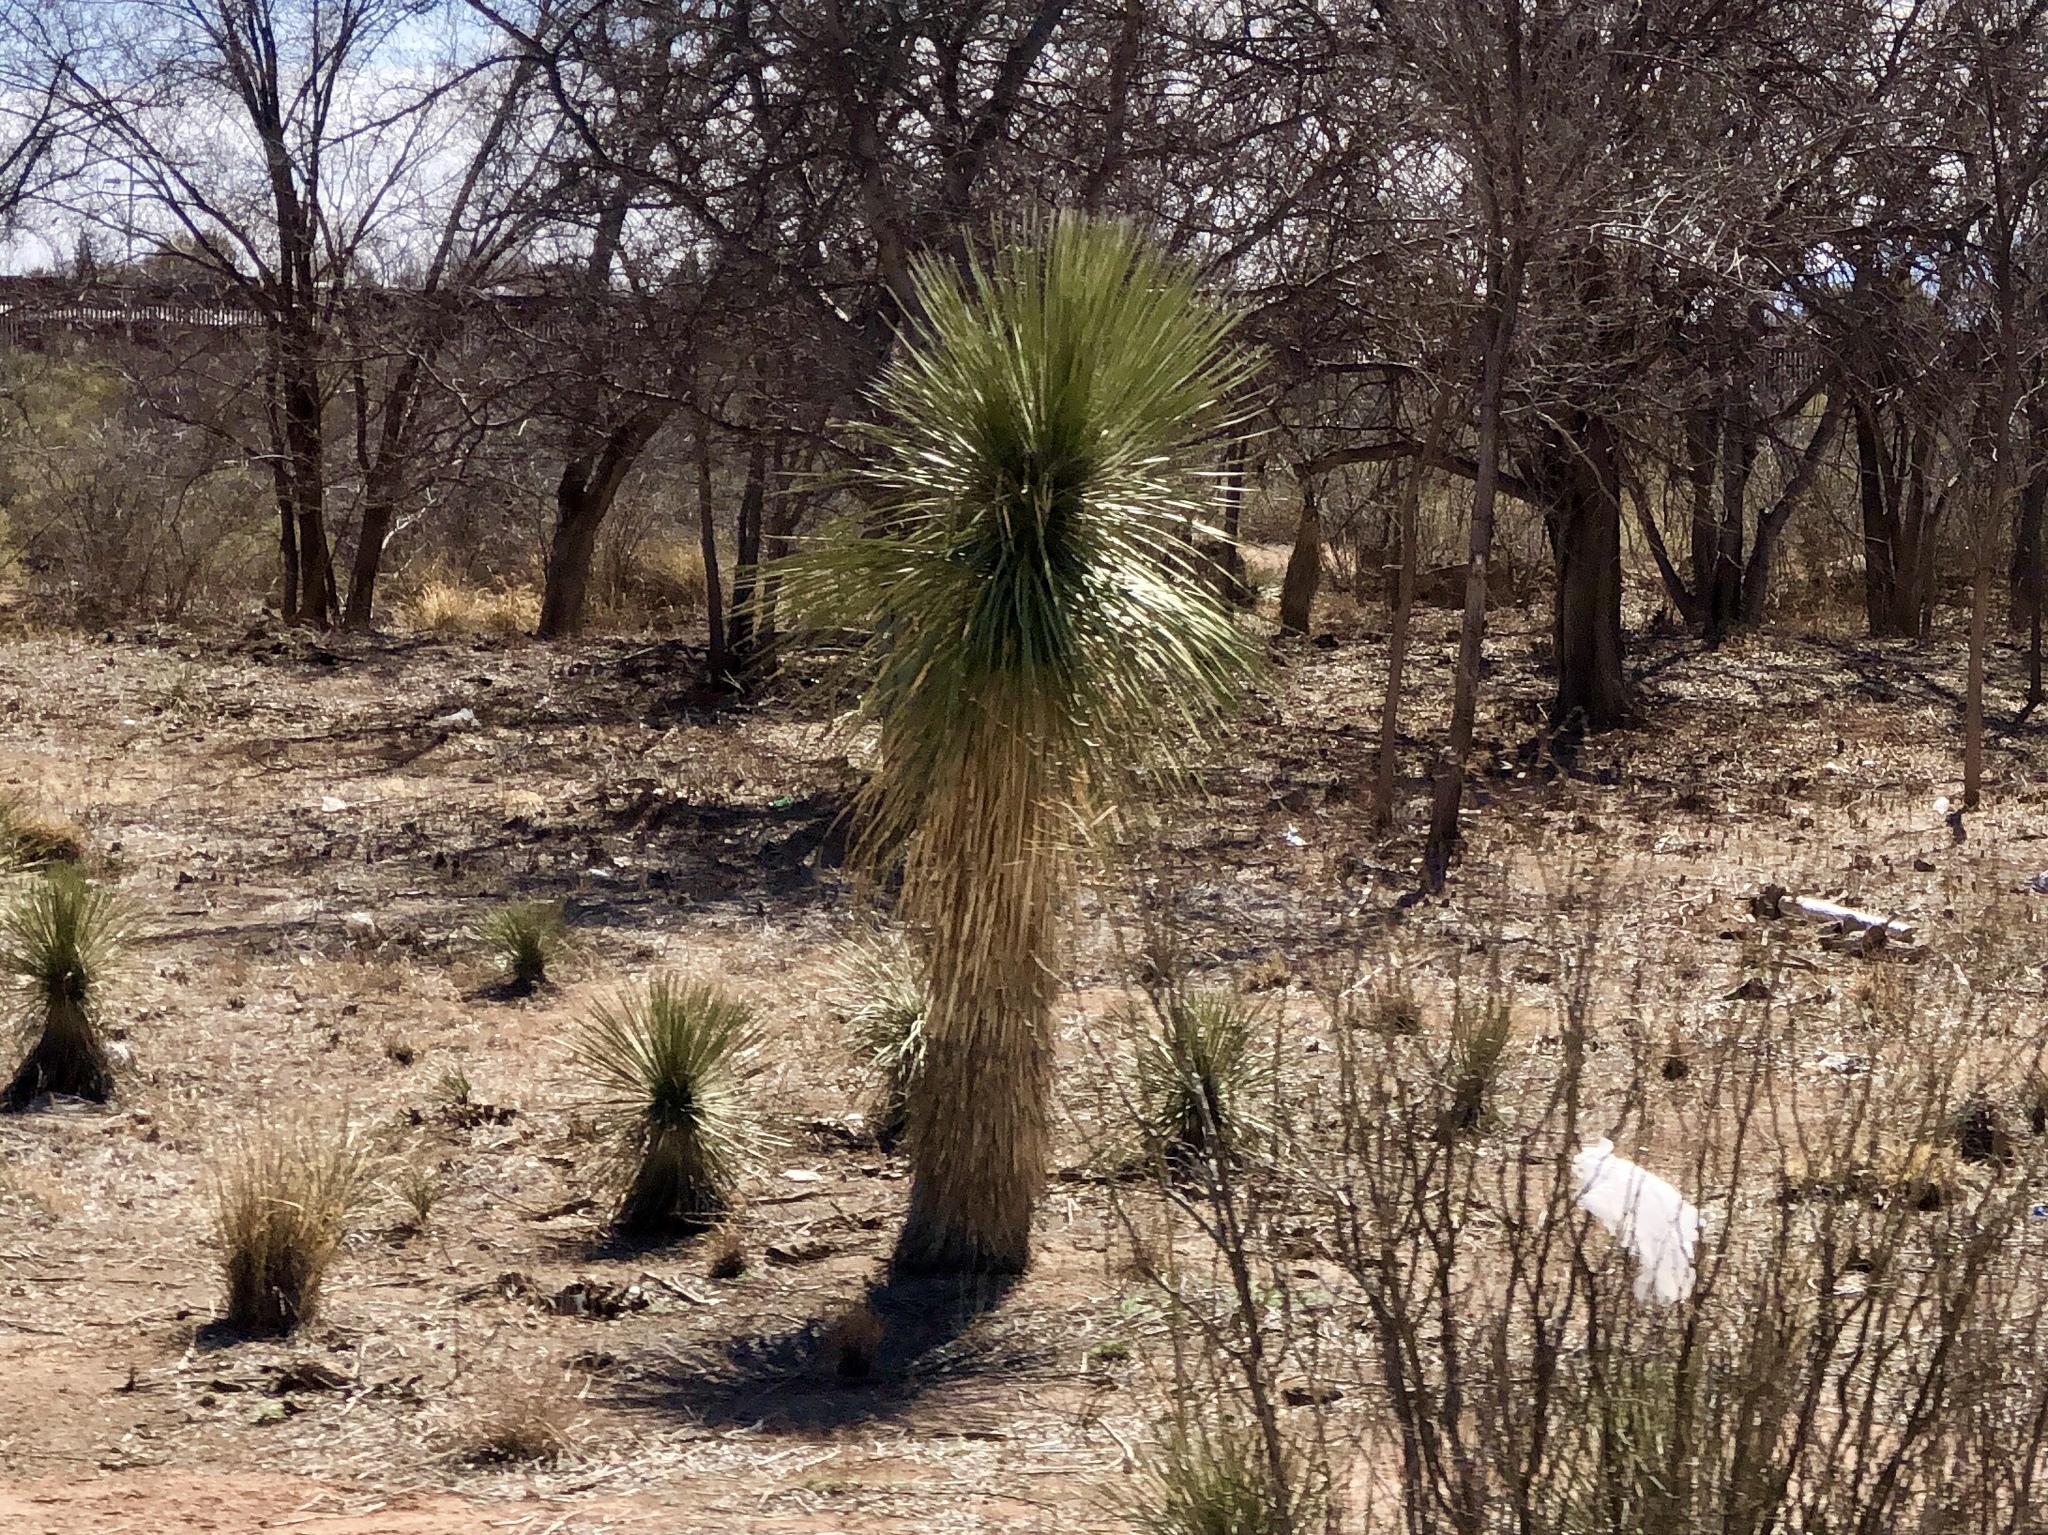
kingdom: Plantae
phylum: Tracheophyta
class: Liliopsida
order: Asparagales
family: Asparagaceae
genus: Yucca
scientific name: Yucca elata
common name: Palmella
